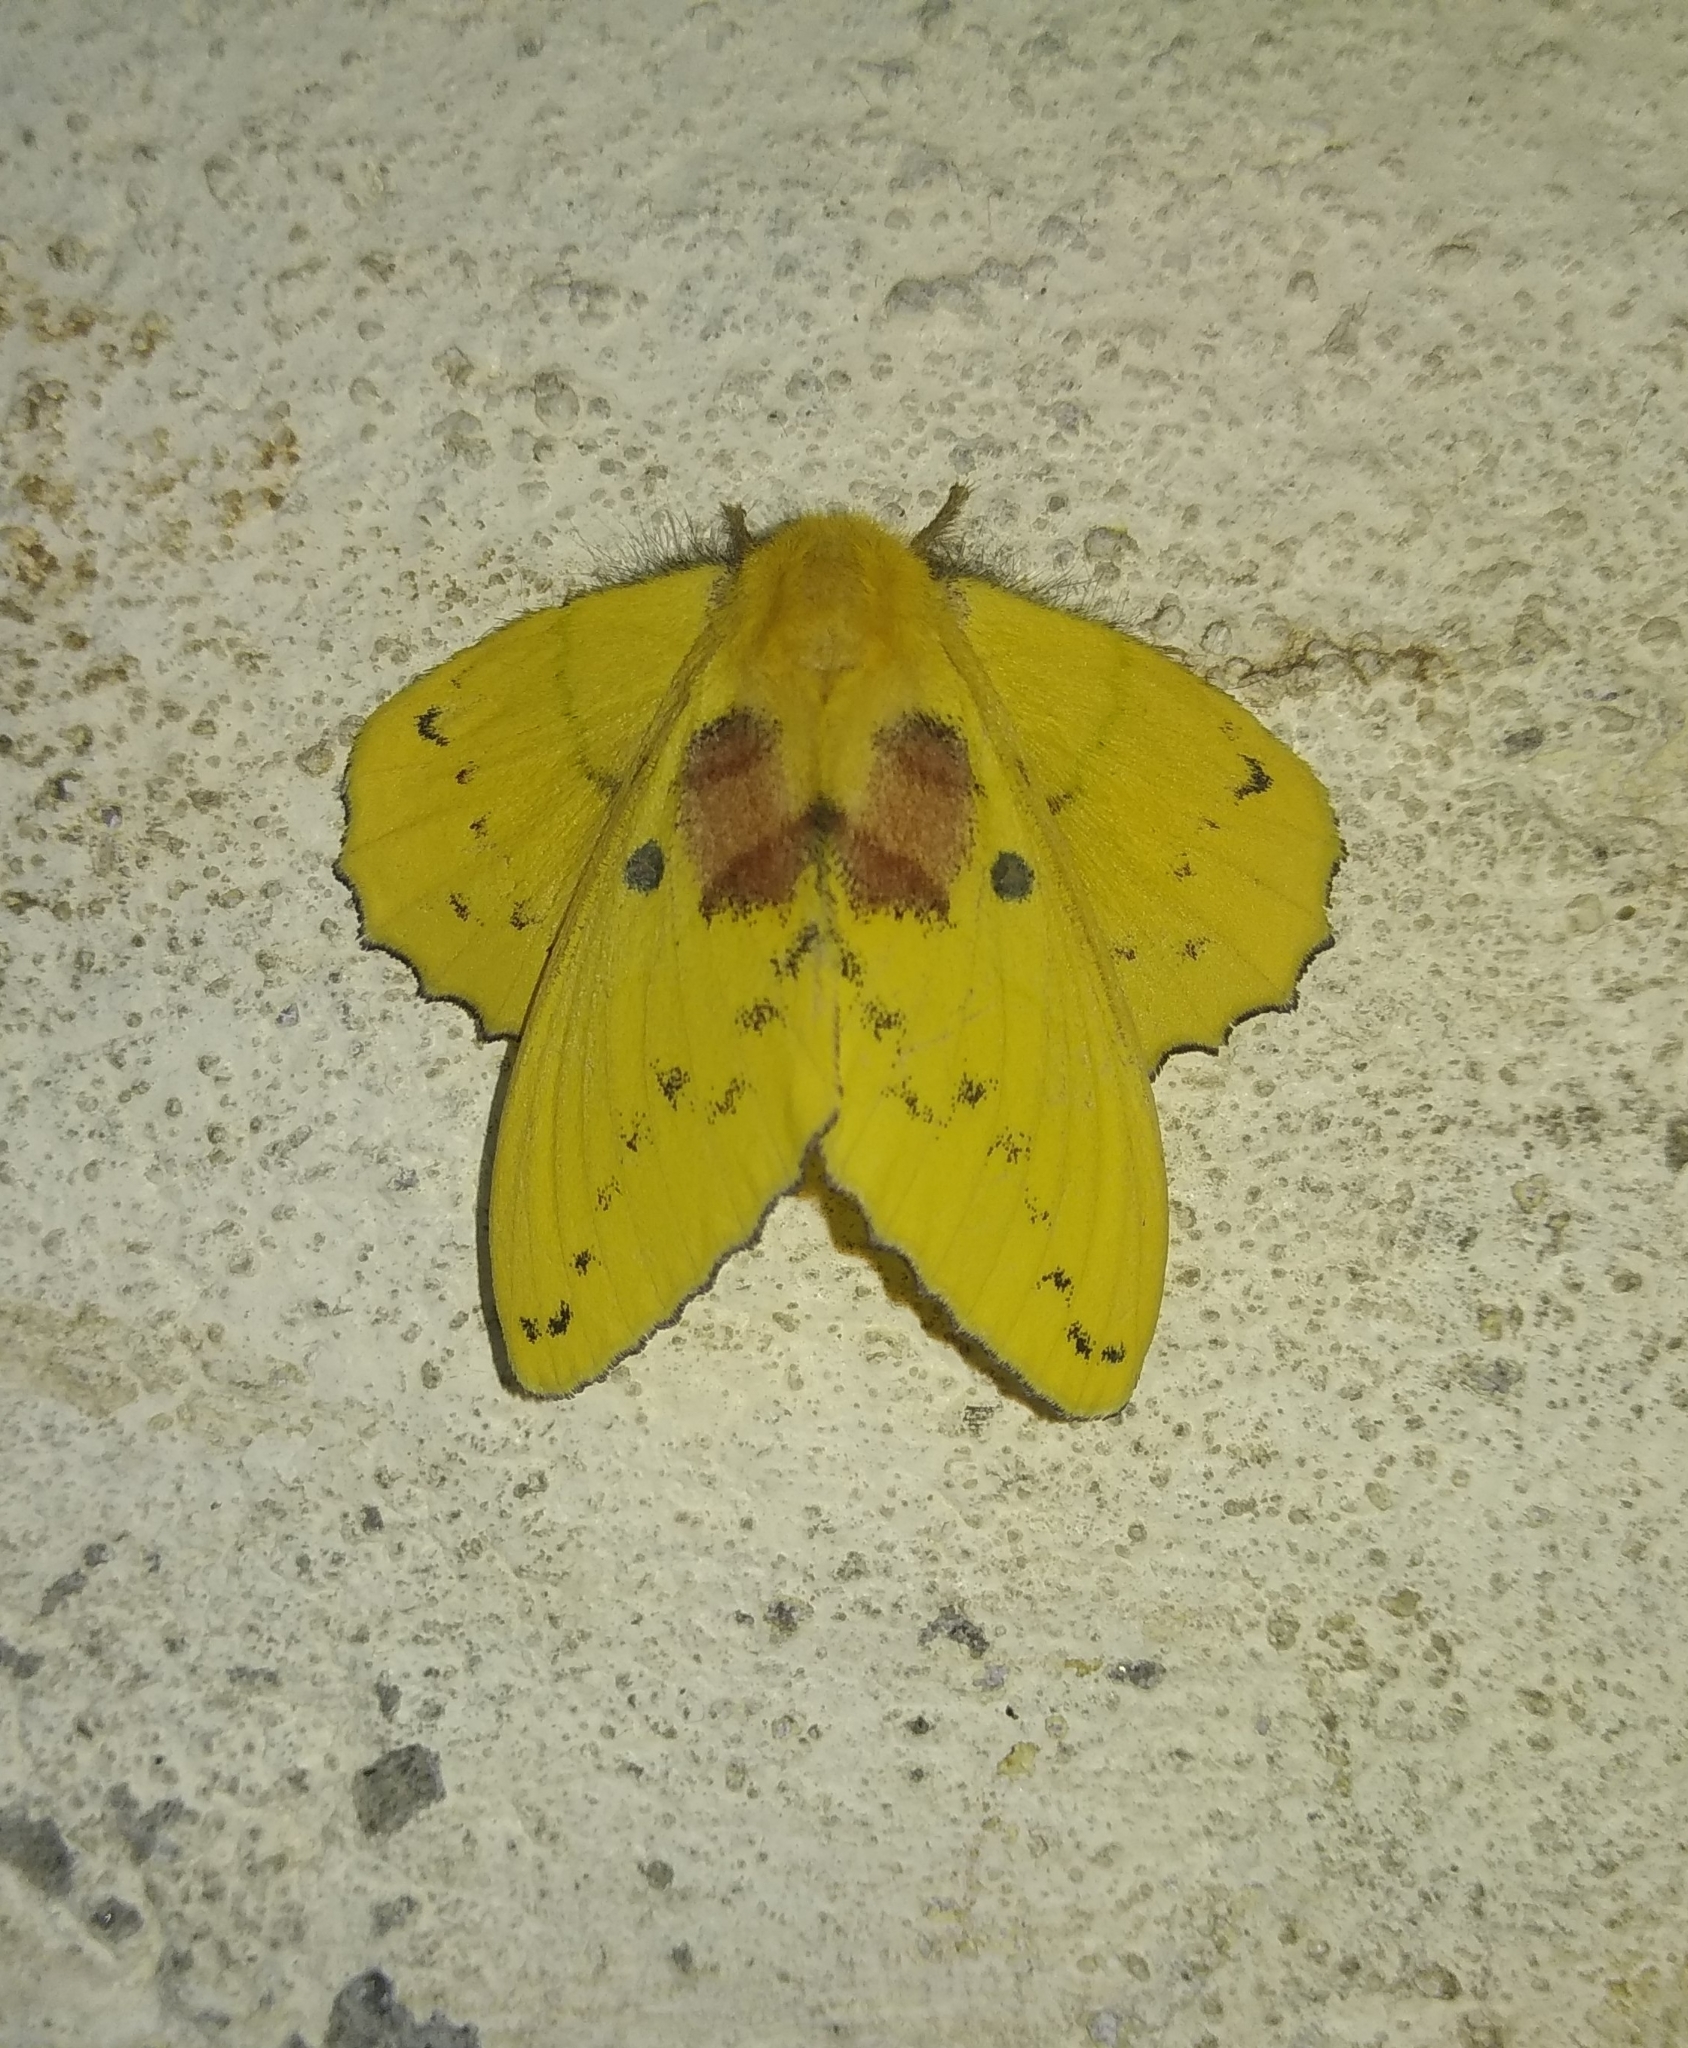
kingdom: Animalia
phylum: Arthropoda
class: Insecta
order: Lepidoptera
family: Lasiocampidae
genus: Trabala
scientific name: Trabala vishnou
